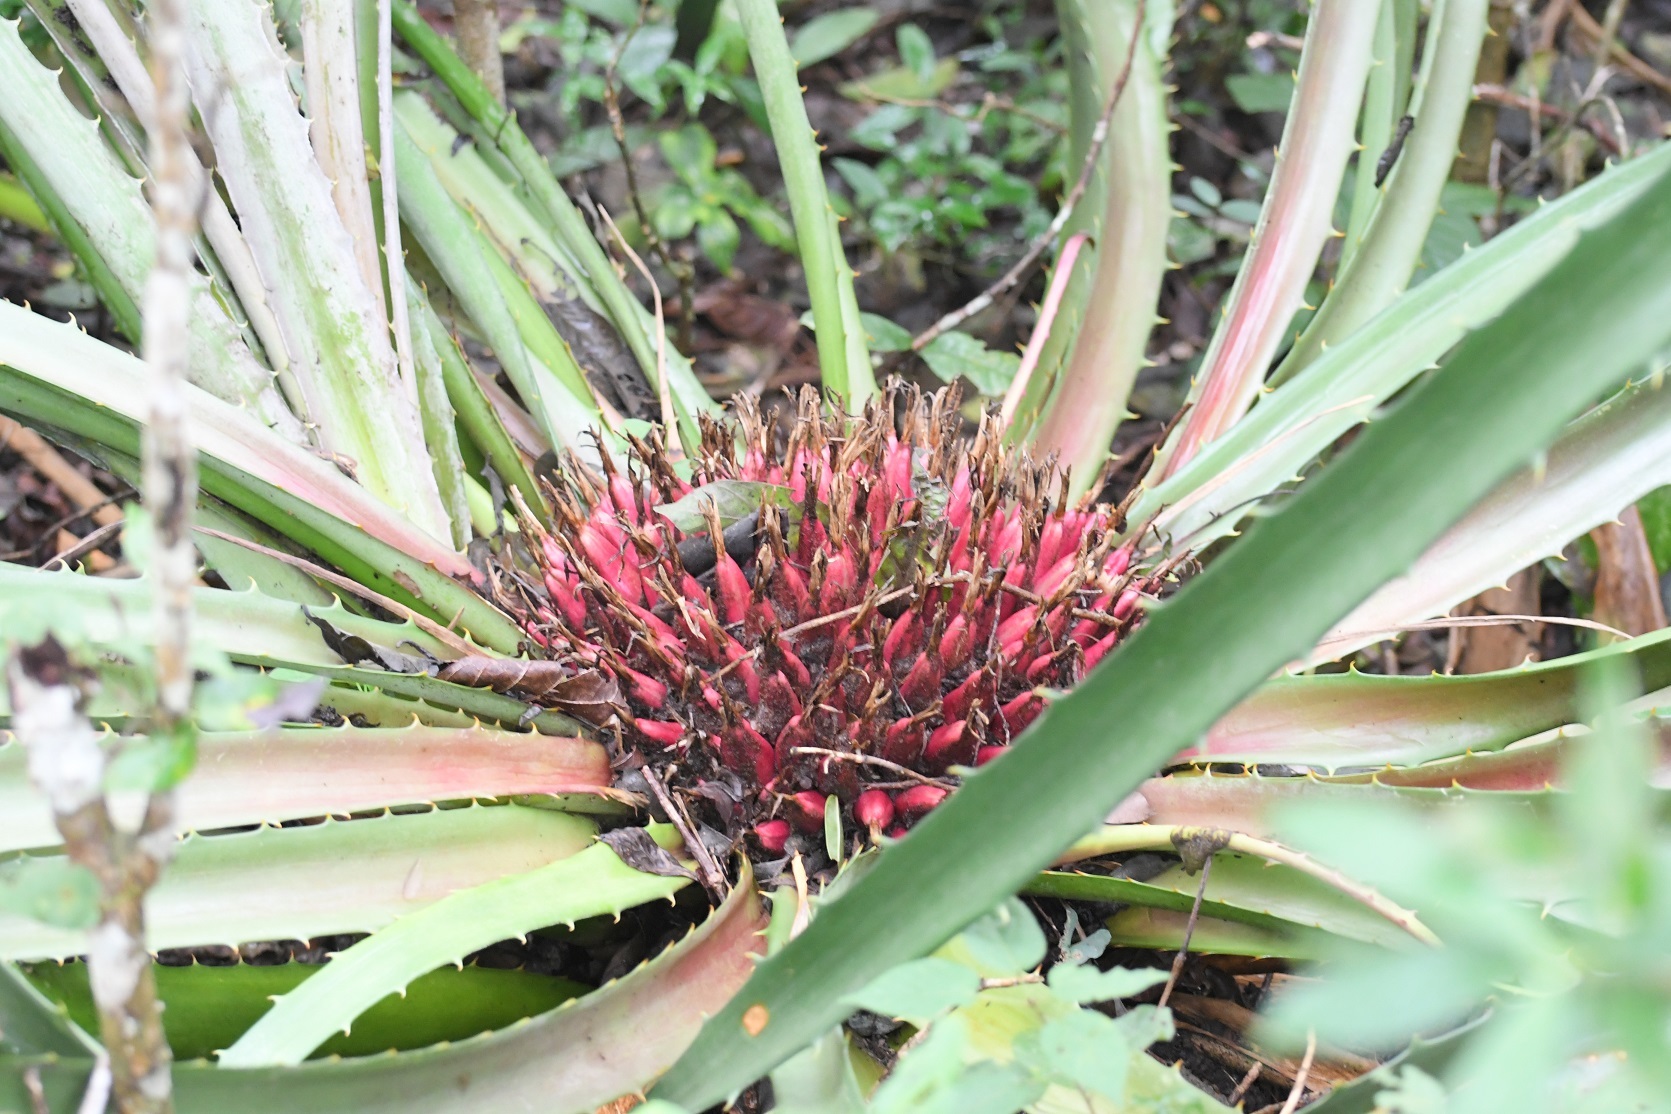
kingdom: Plantae
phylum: Tracheophyta
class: Liliopsida
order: Poales
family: Bromeliaceae
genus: Bromelia
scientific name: Bromelia karatas
